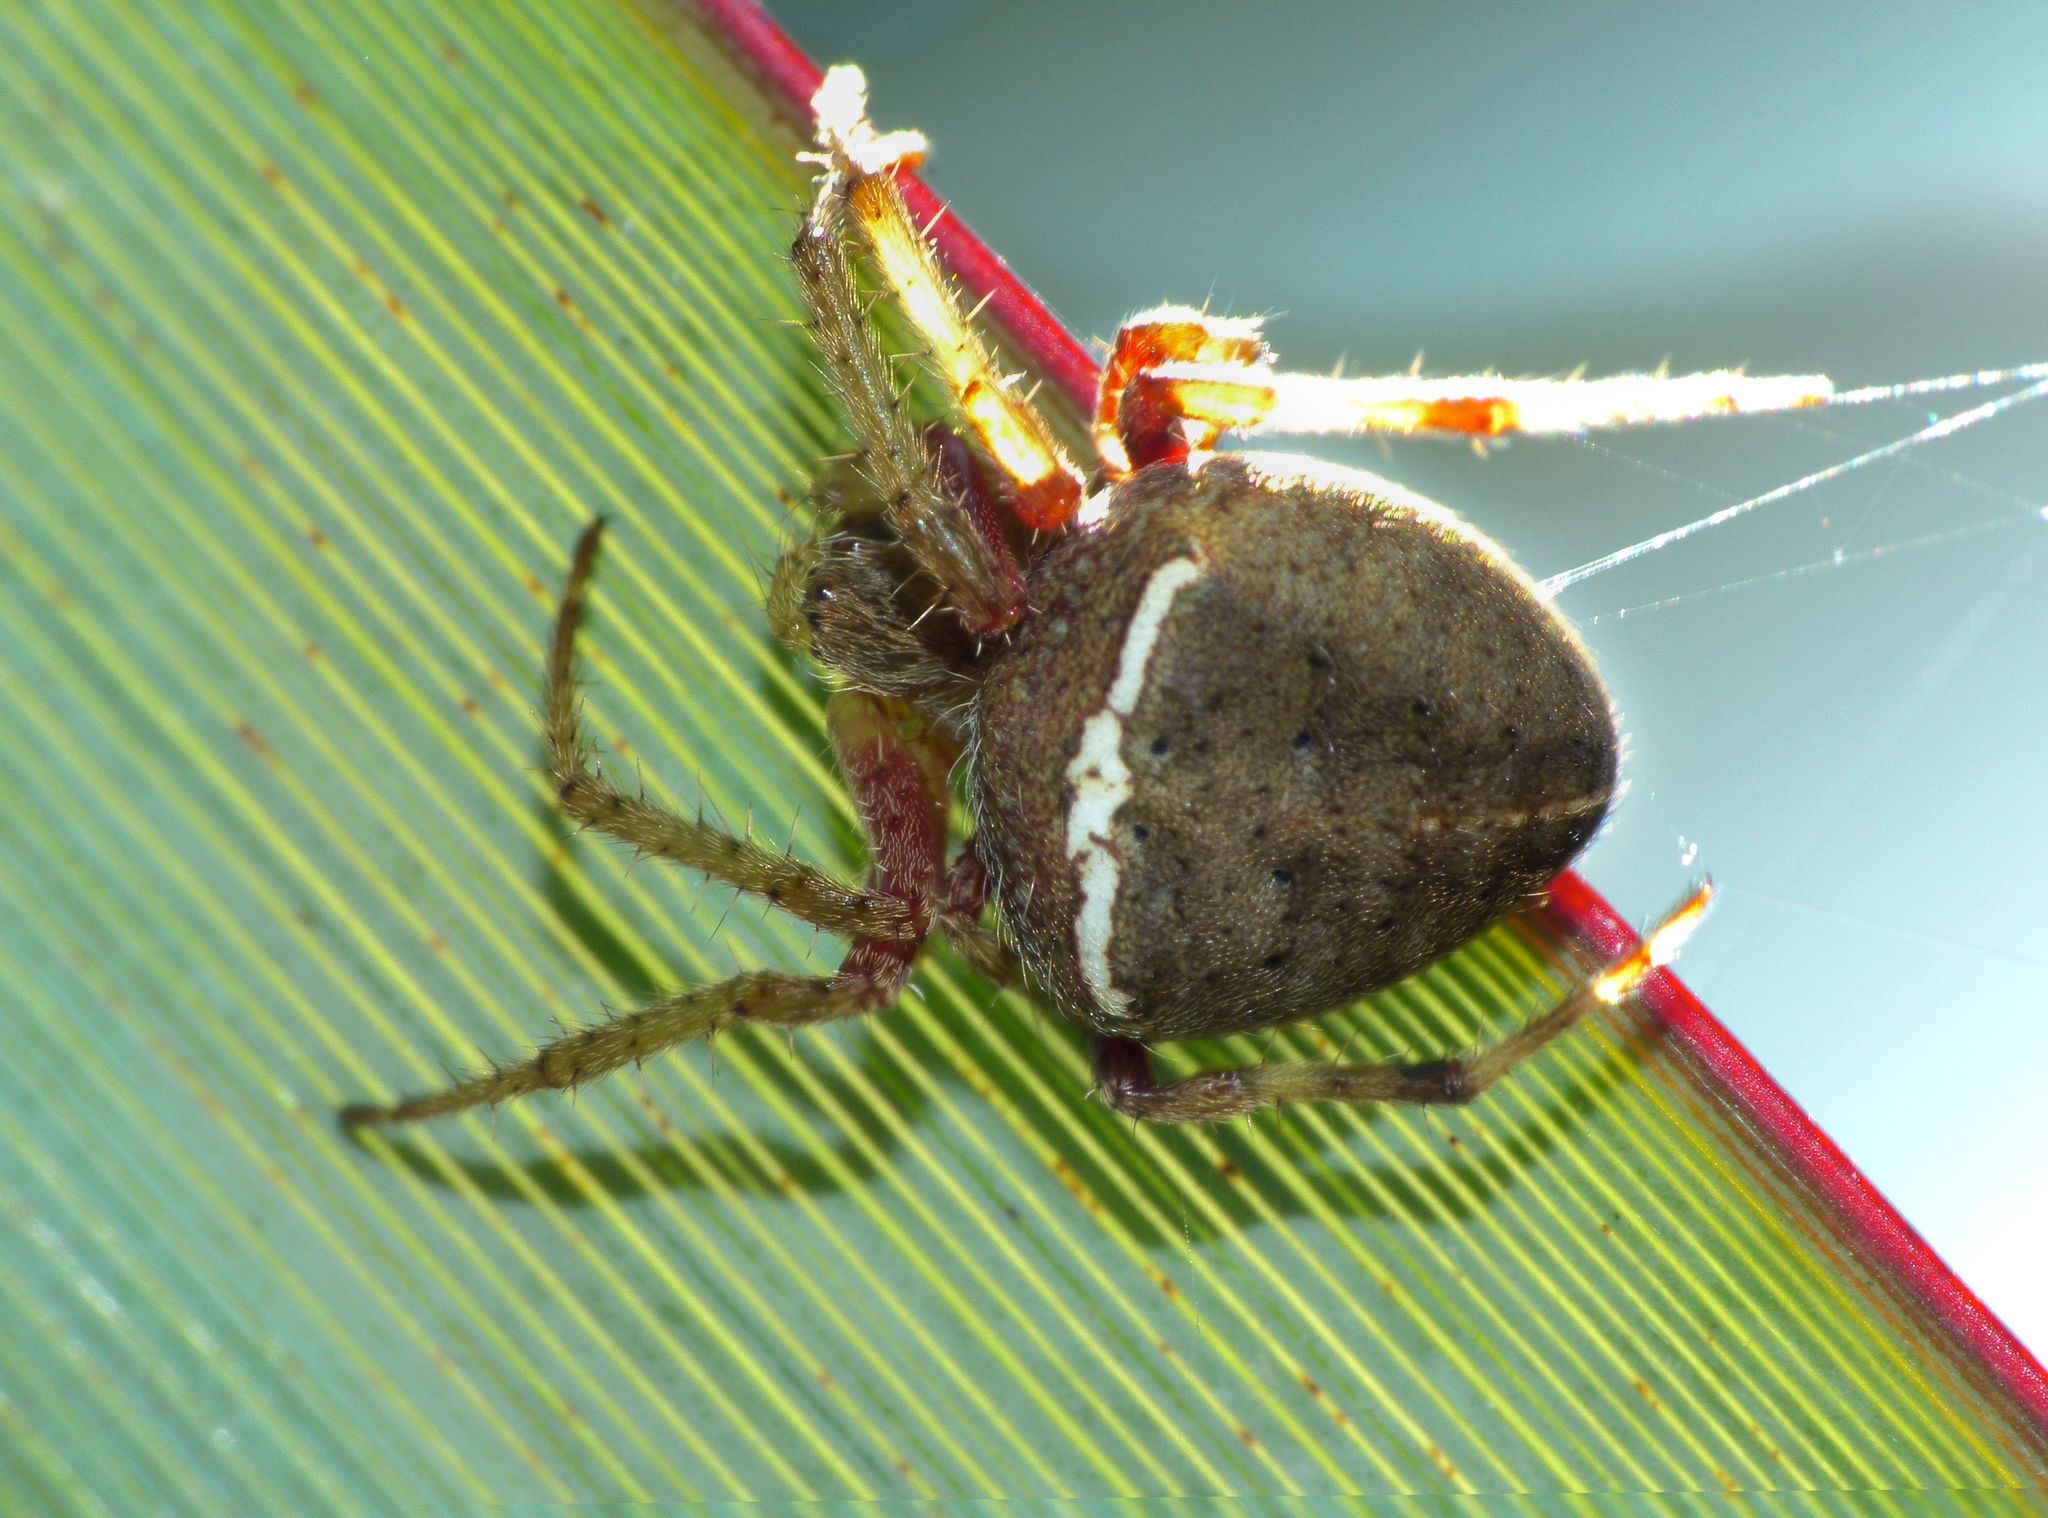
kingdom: Animalia
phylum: Arthropoda
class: Arachnida
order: Araneae
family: Araneidae
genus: Zealaranea
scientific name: Zealaranea crassa
